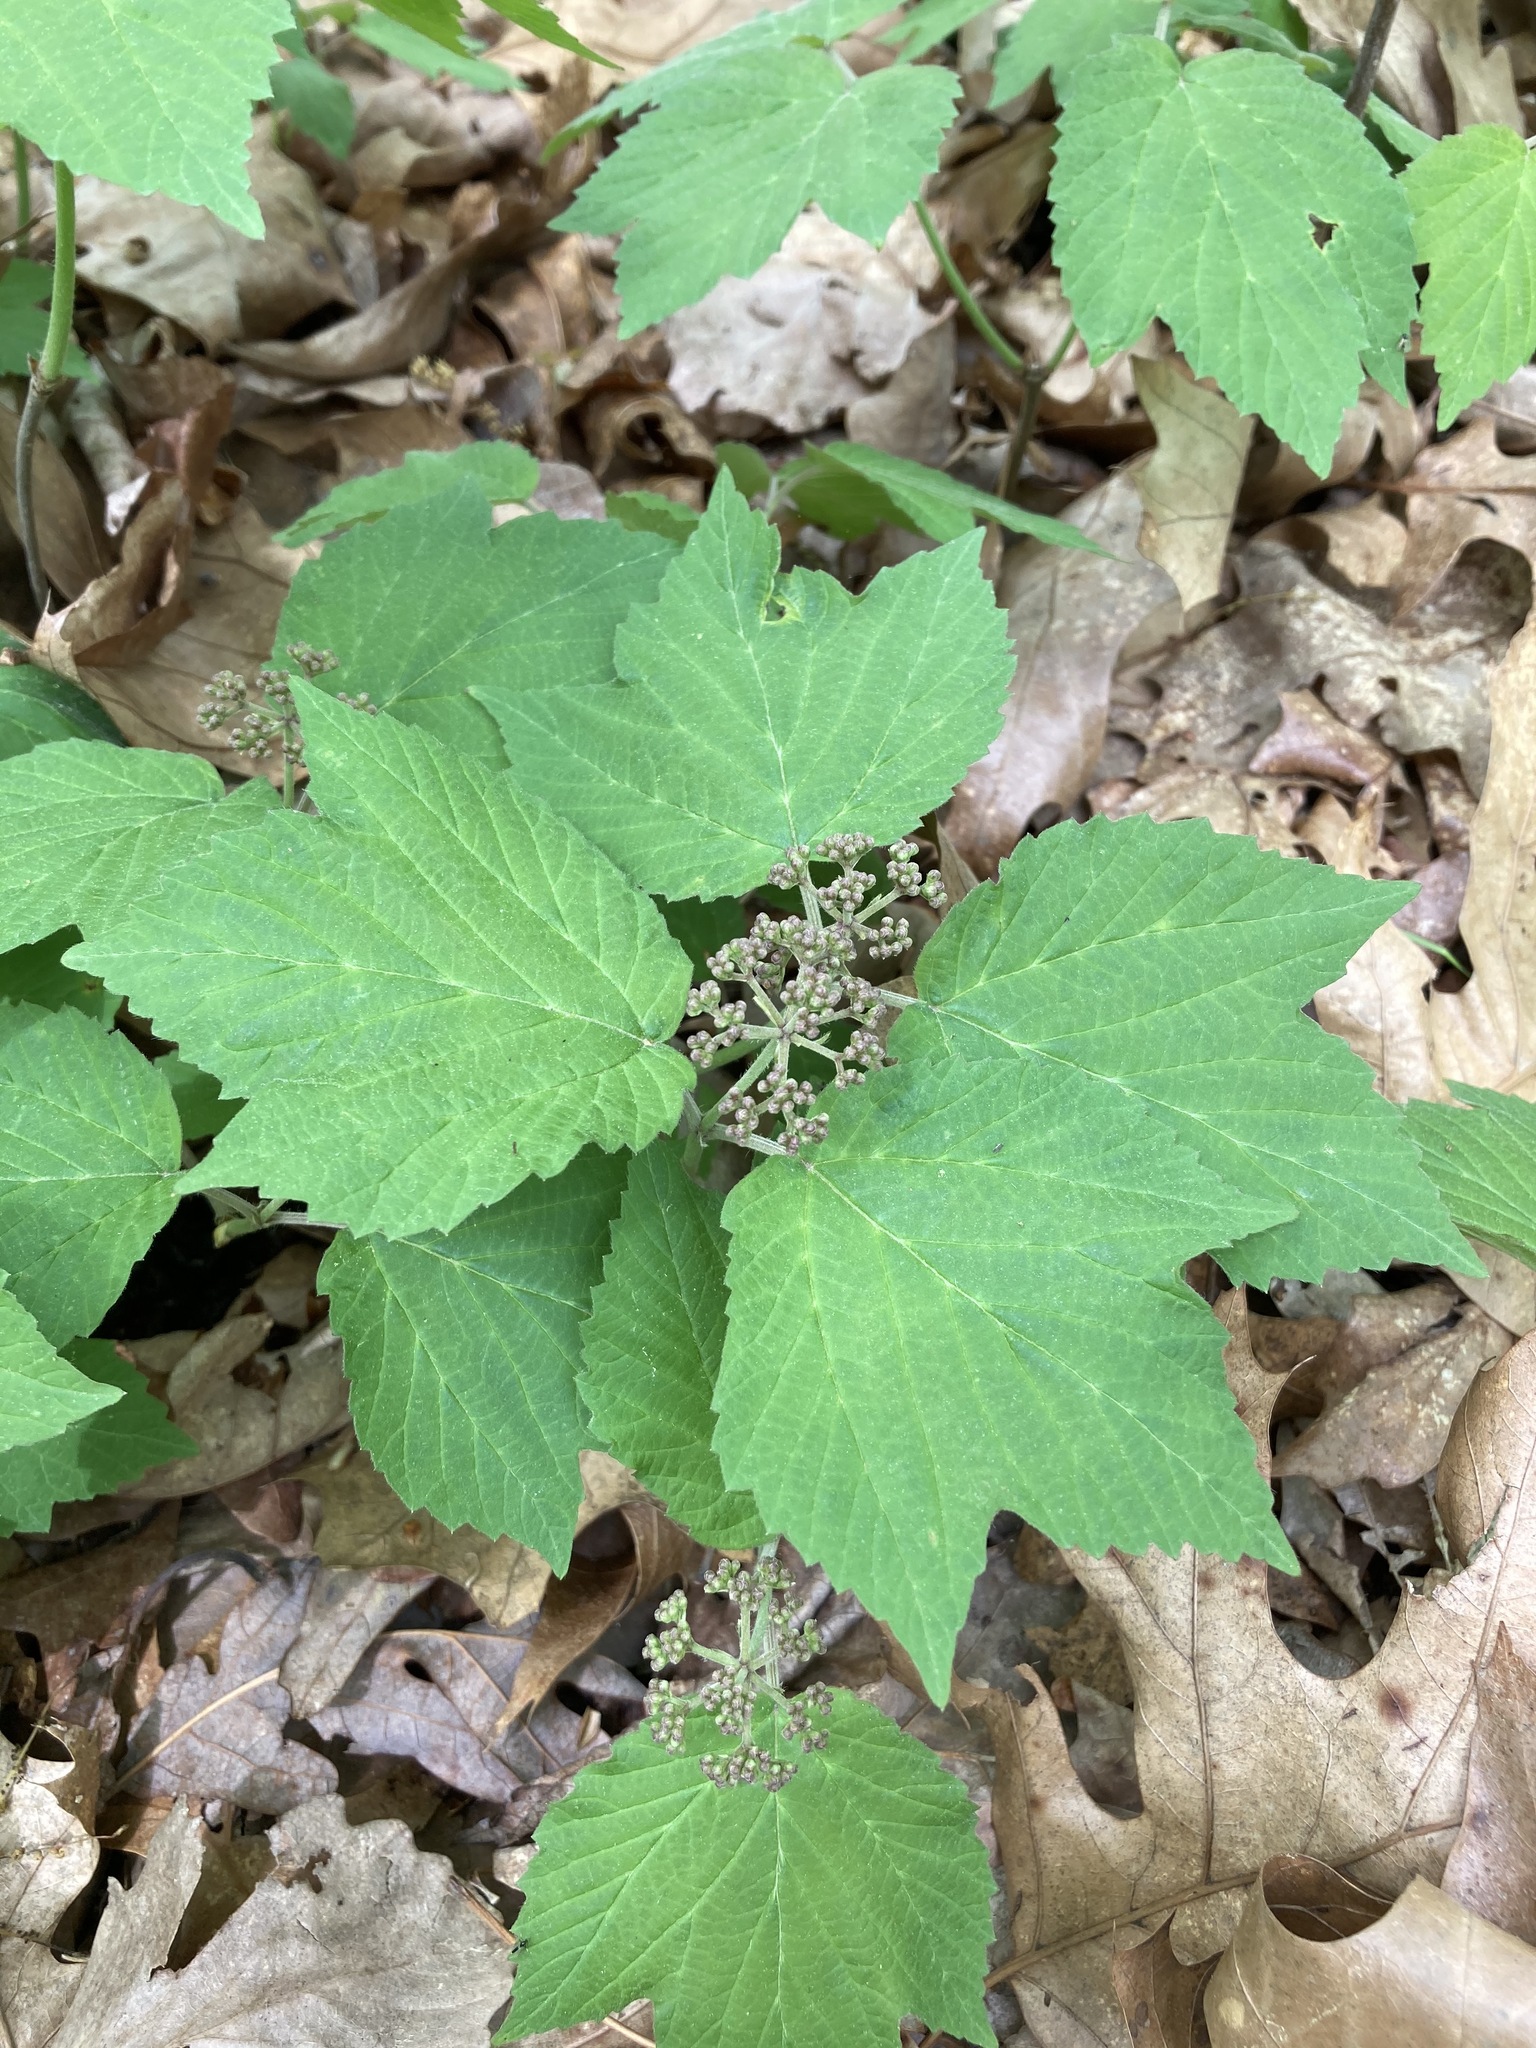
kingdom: Plantae
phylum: Tracheophyta
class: Magnoliopsida
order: Dipsacales
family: Viburnaceae
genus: Viburnum
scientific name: Viburnum acerifolium
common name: Dockmackie
